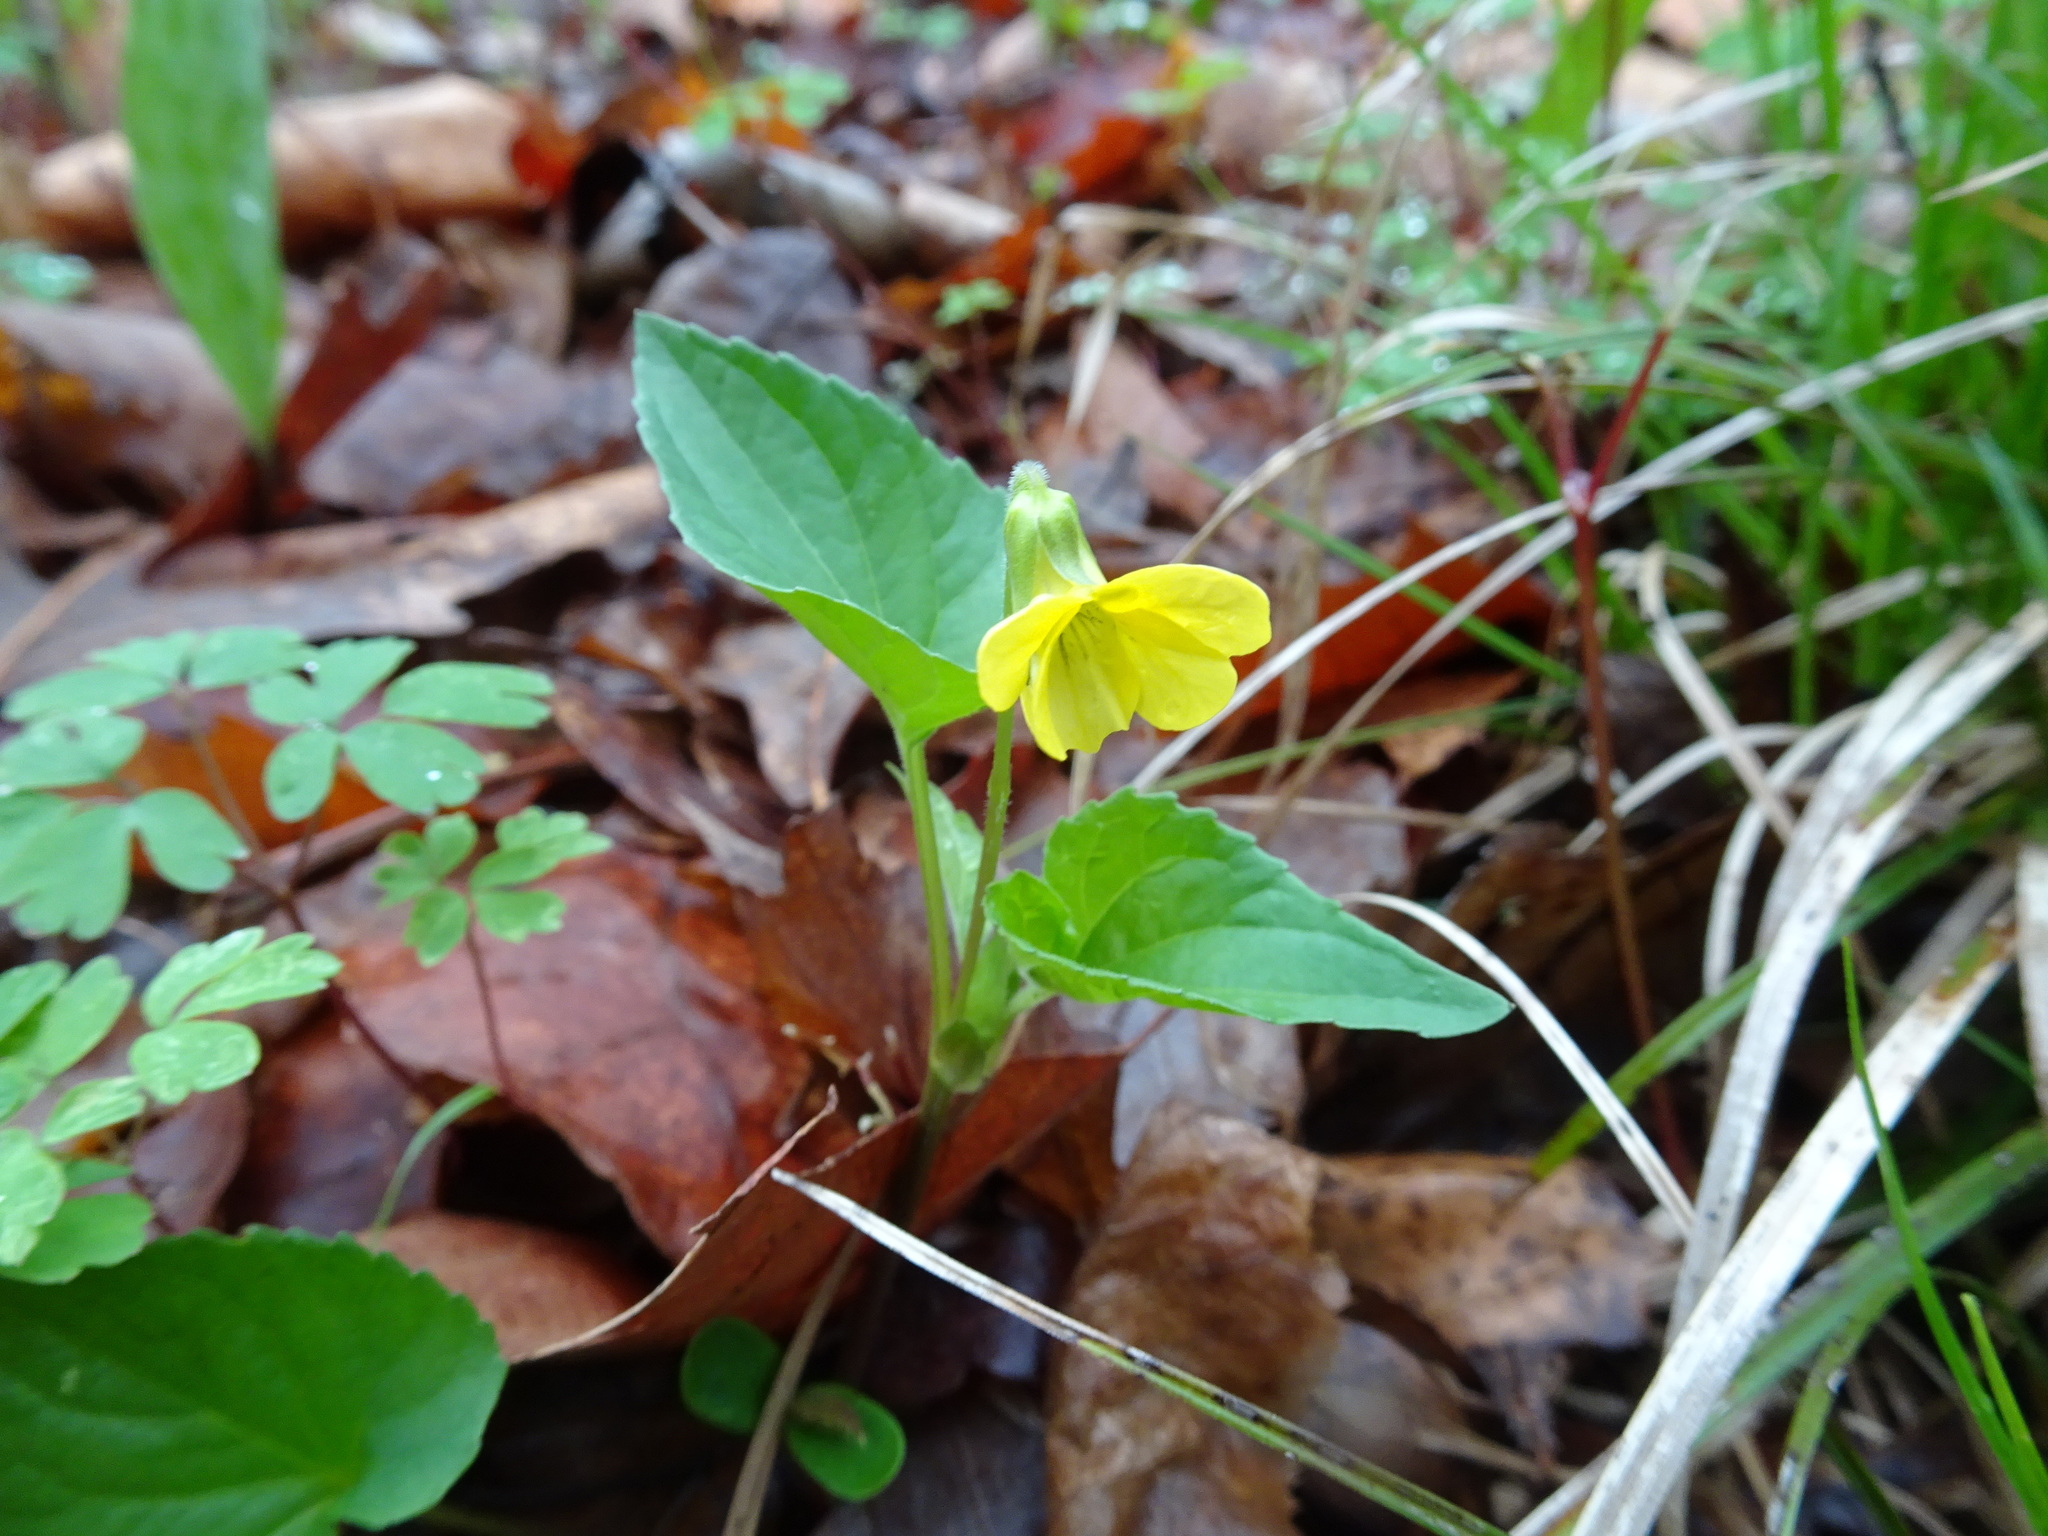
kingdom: Plantae
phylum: Tracheophyta
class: Magnoliopsida
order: Malpighiales
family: Violaceae
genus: Viola
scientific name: Viola eriocarpa
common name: Smooth yellow violet
